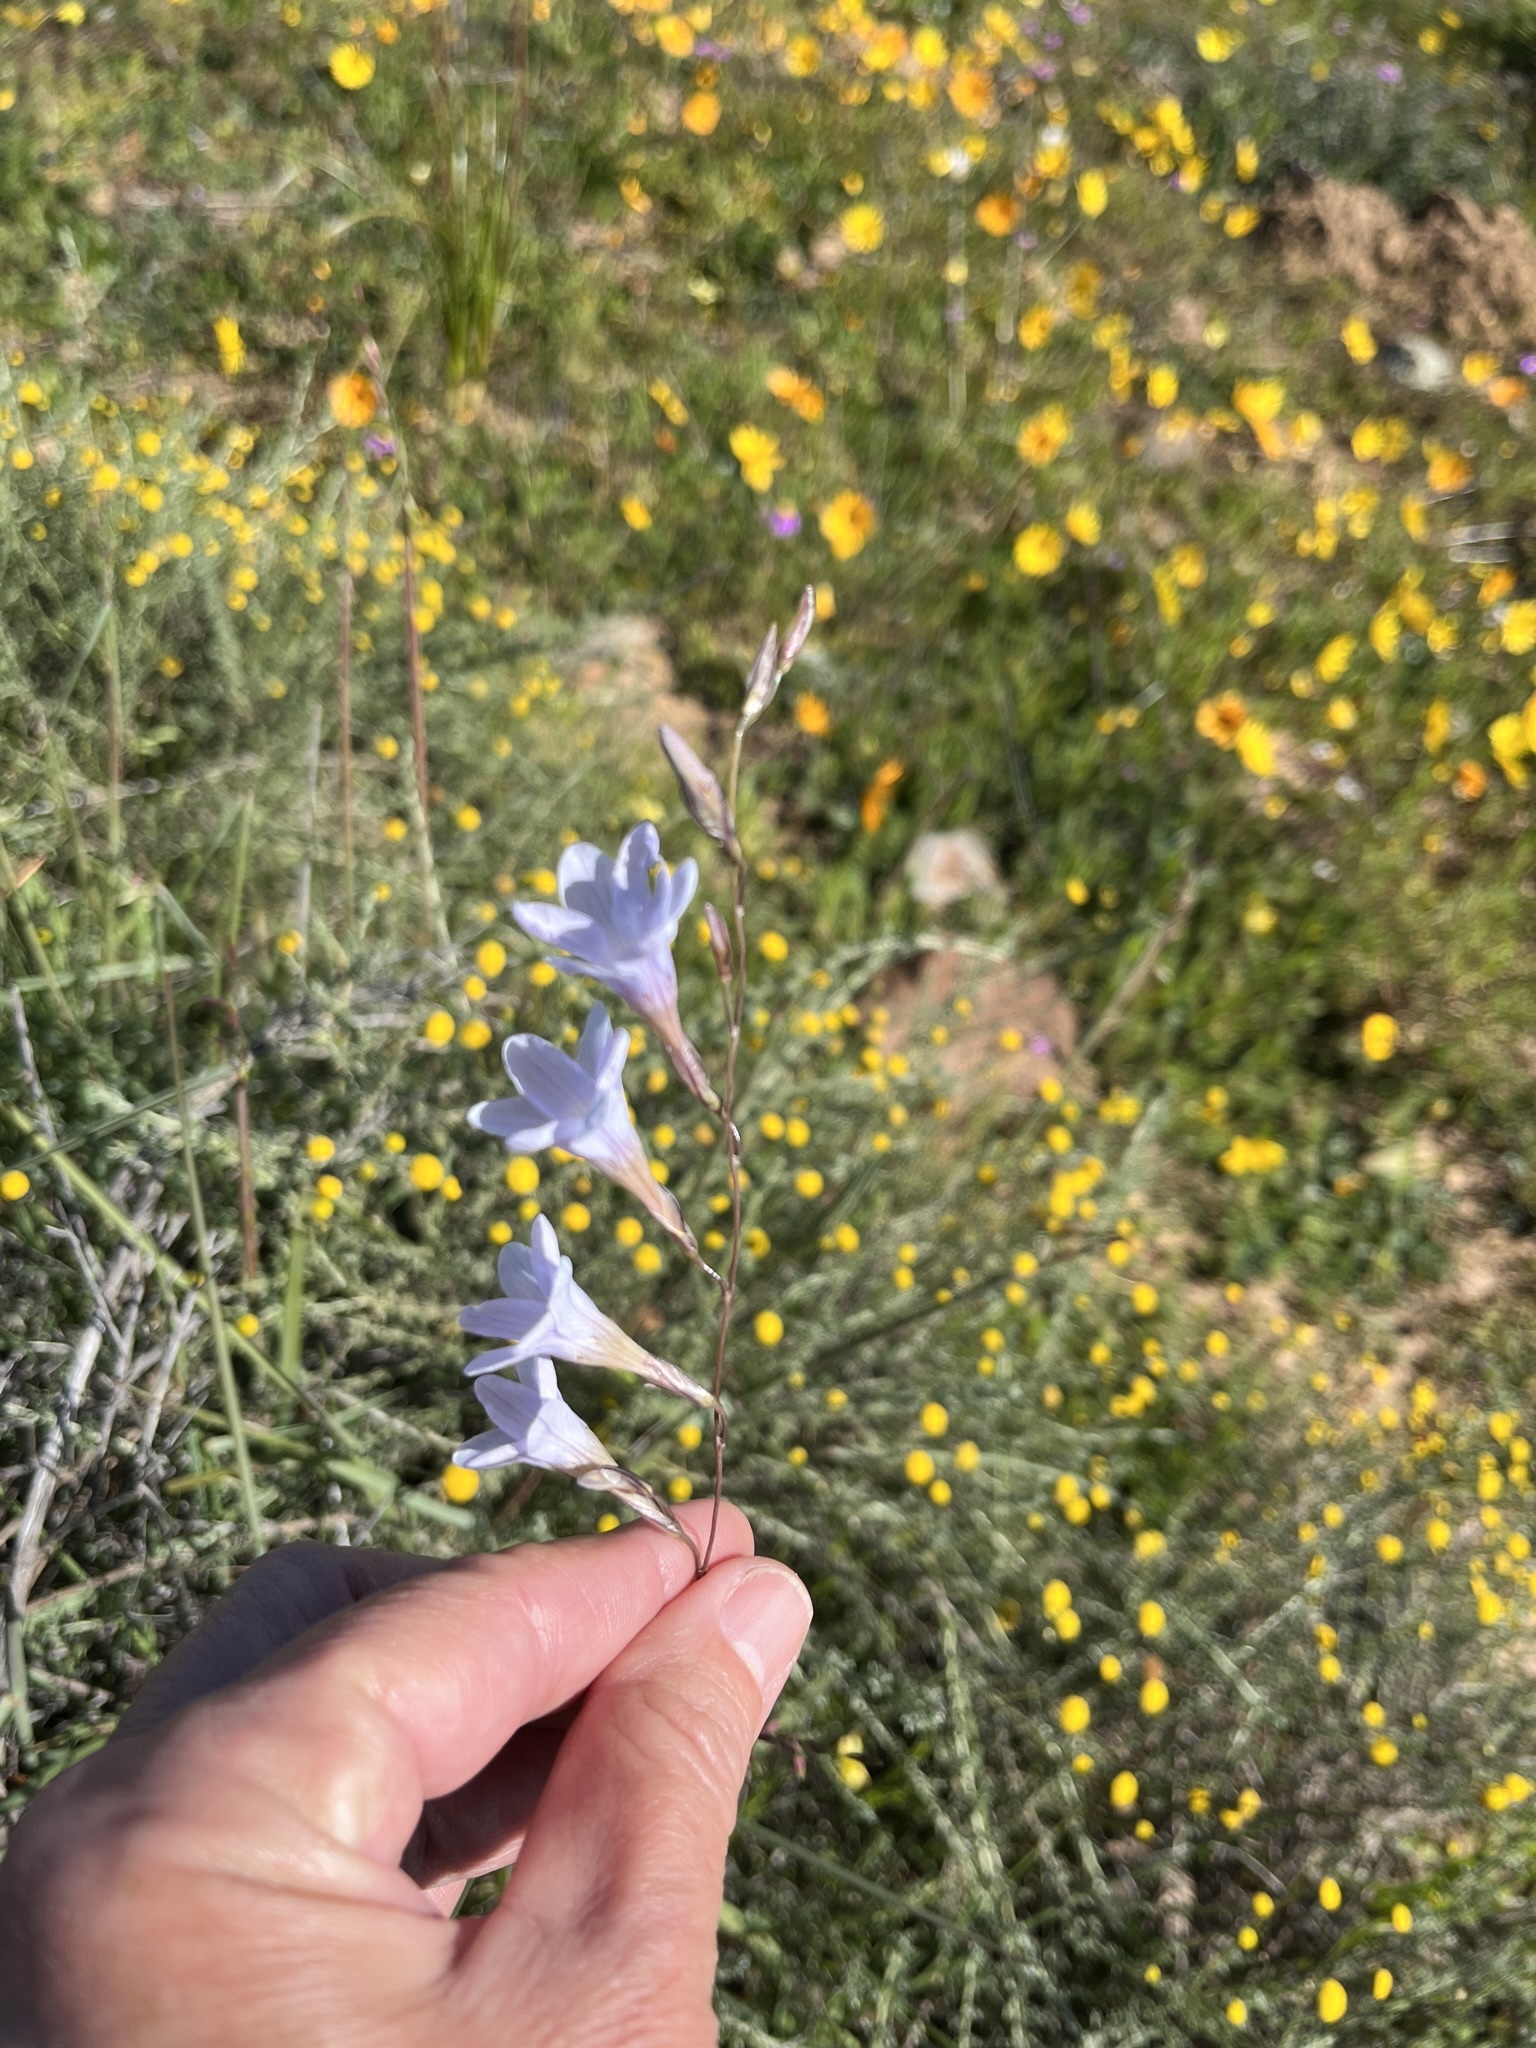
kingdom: Plantae
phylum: Tracheophyta
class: Liliopsida
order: Asparagales
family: Iridaceae
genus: Ixia
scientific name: Ixia rapunculoides
